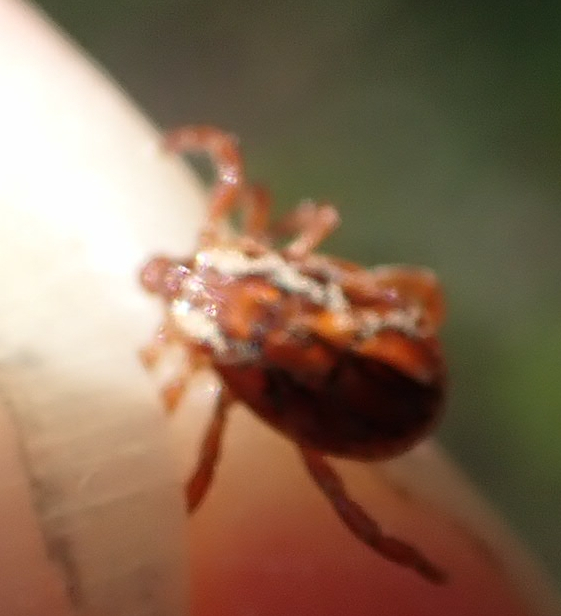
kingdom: Animalia
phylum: Arthropoda
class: Arachnida
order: Ixodida
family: Ixodidae
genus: Dermacentor
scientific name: Dermacentor variabilis
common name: American dog tick
